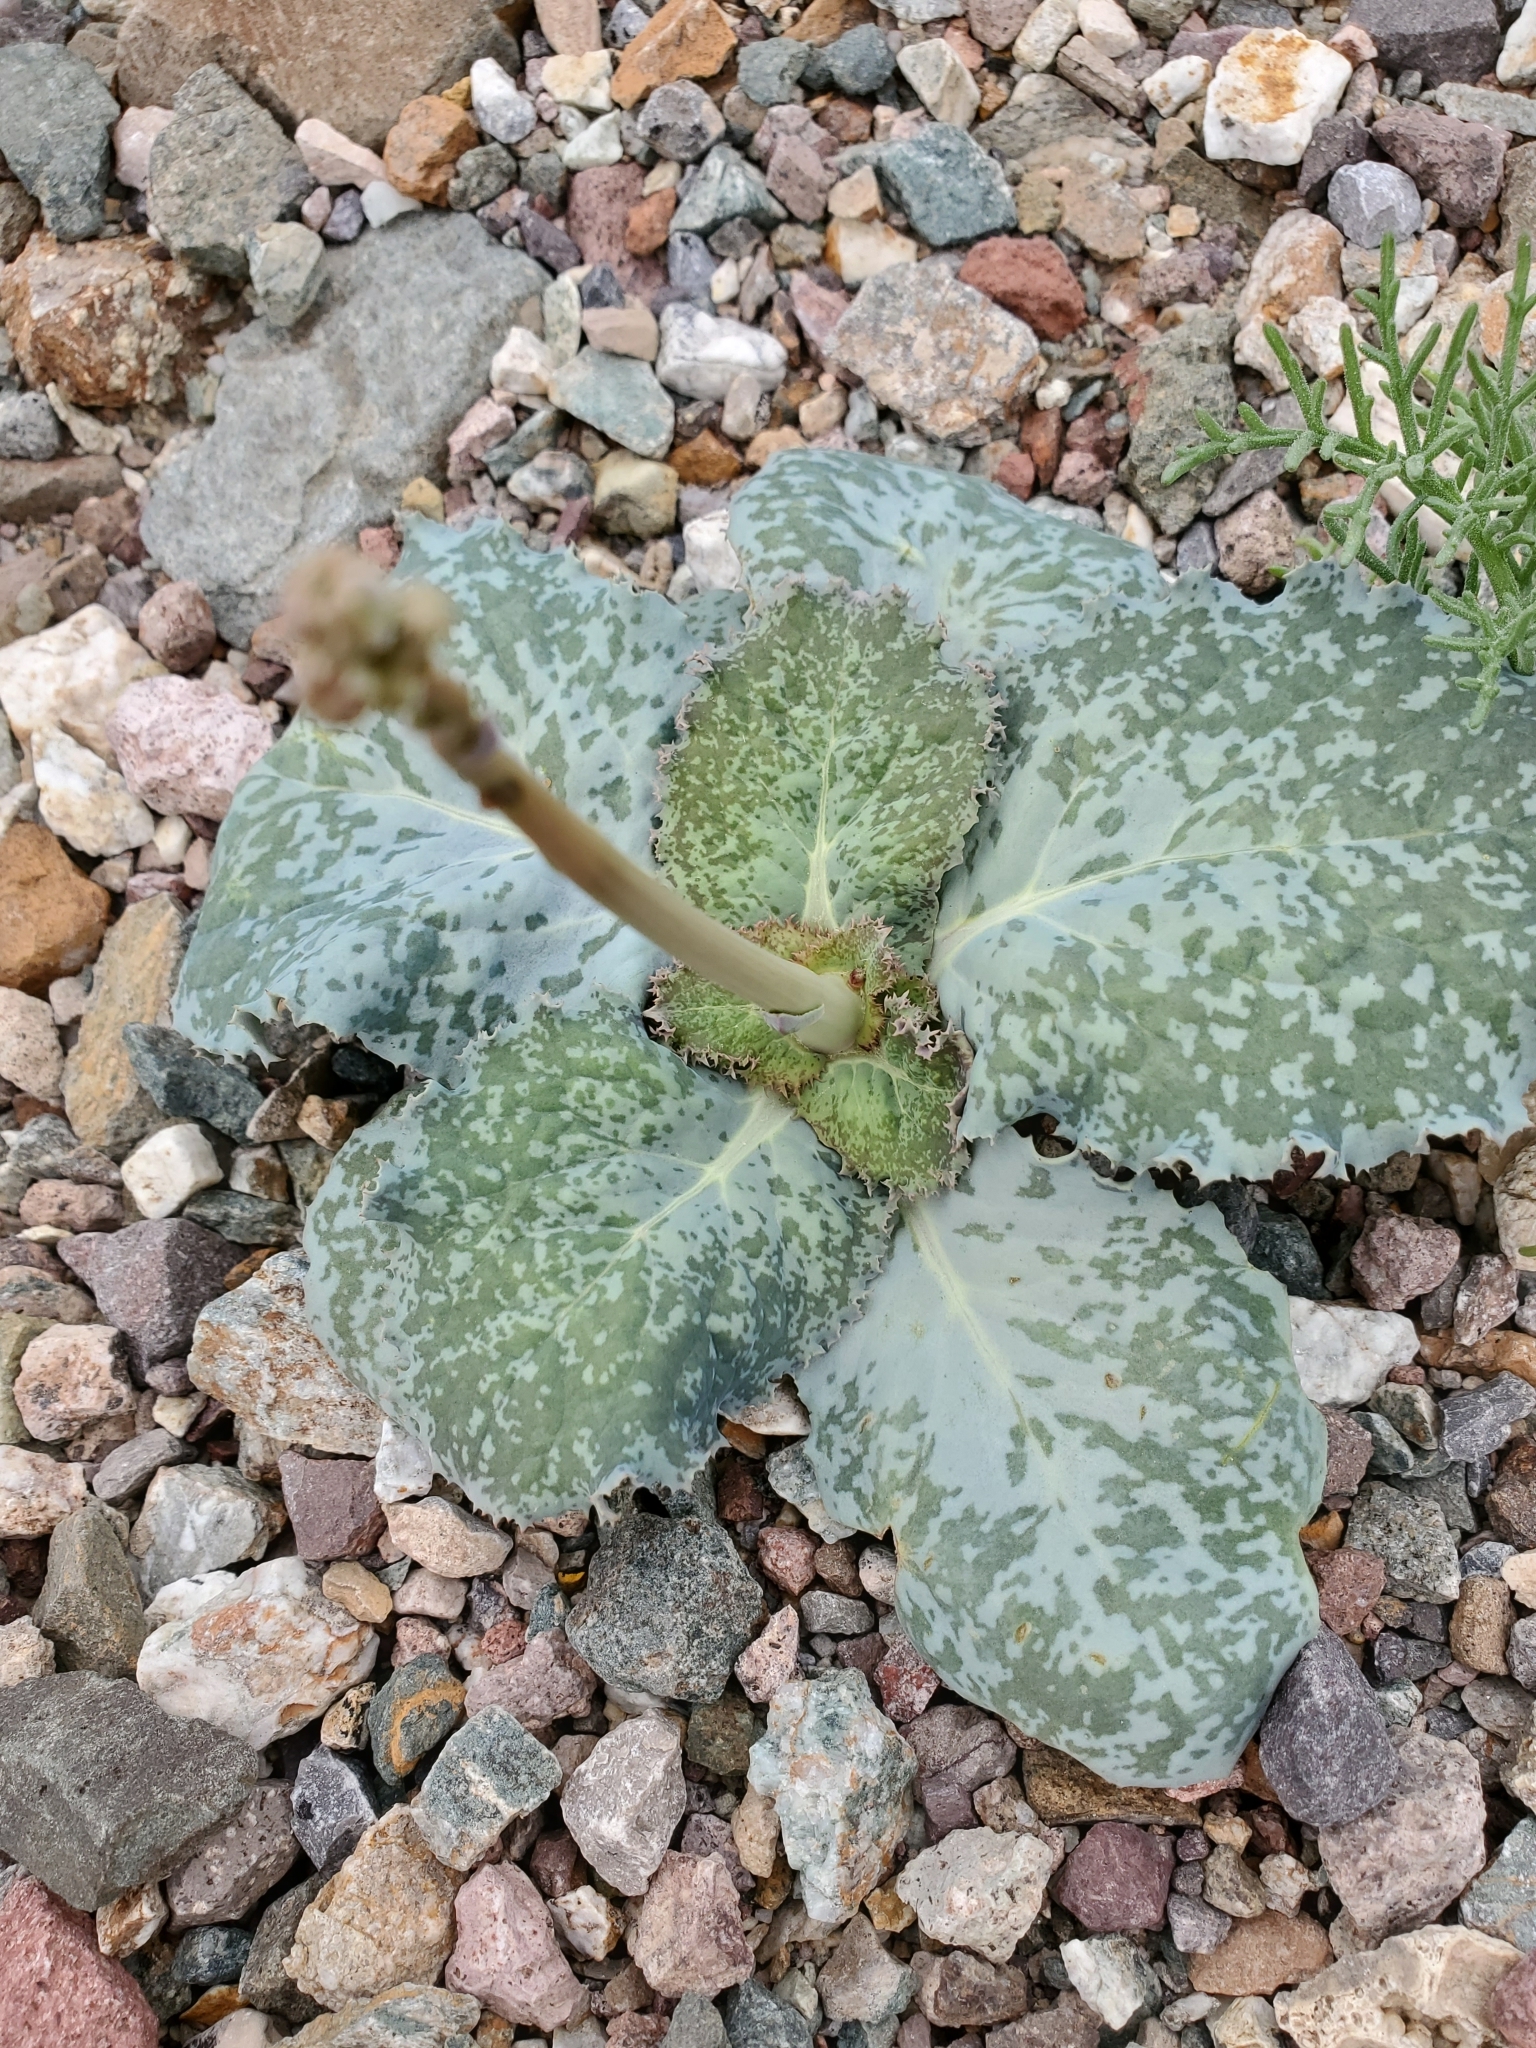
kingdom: Plantae
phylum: Tracheophyta
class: Magnoliopsida
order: Asterales
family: Asteraceae
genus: Atrichoseris
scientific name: Atrichoseris platyphylla
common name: Tobaccoweed
